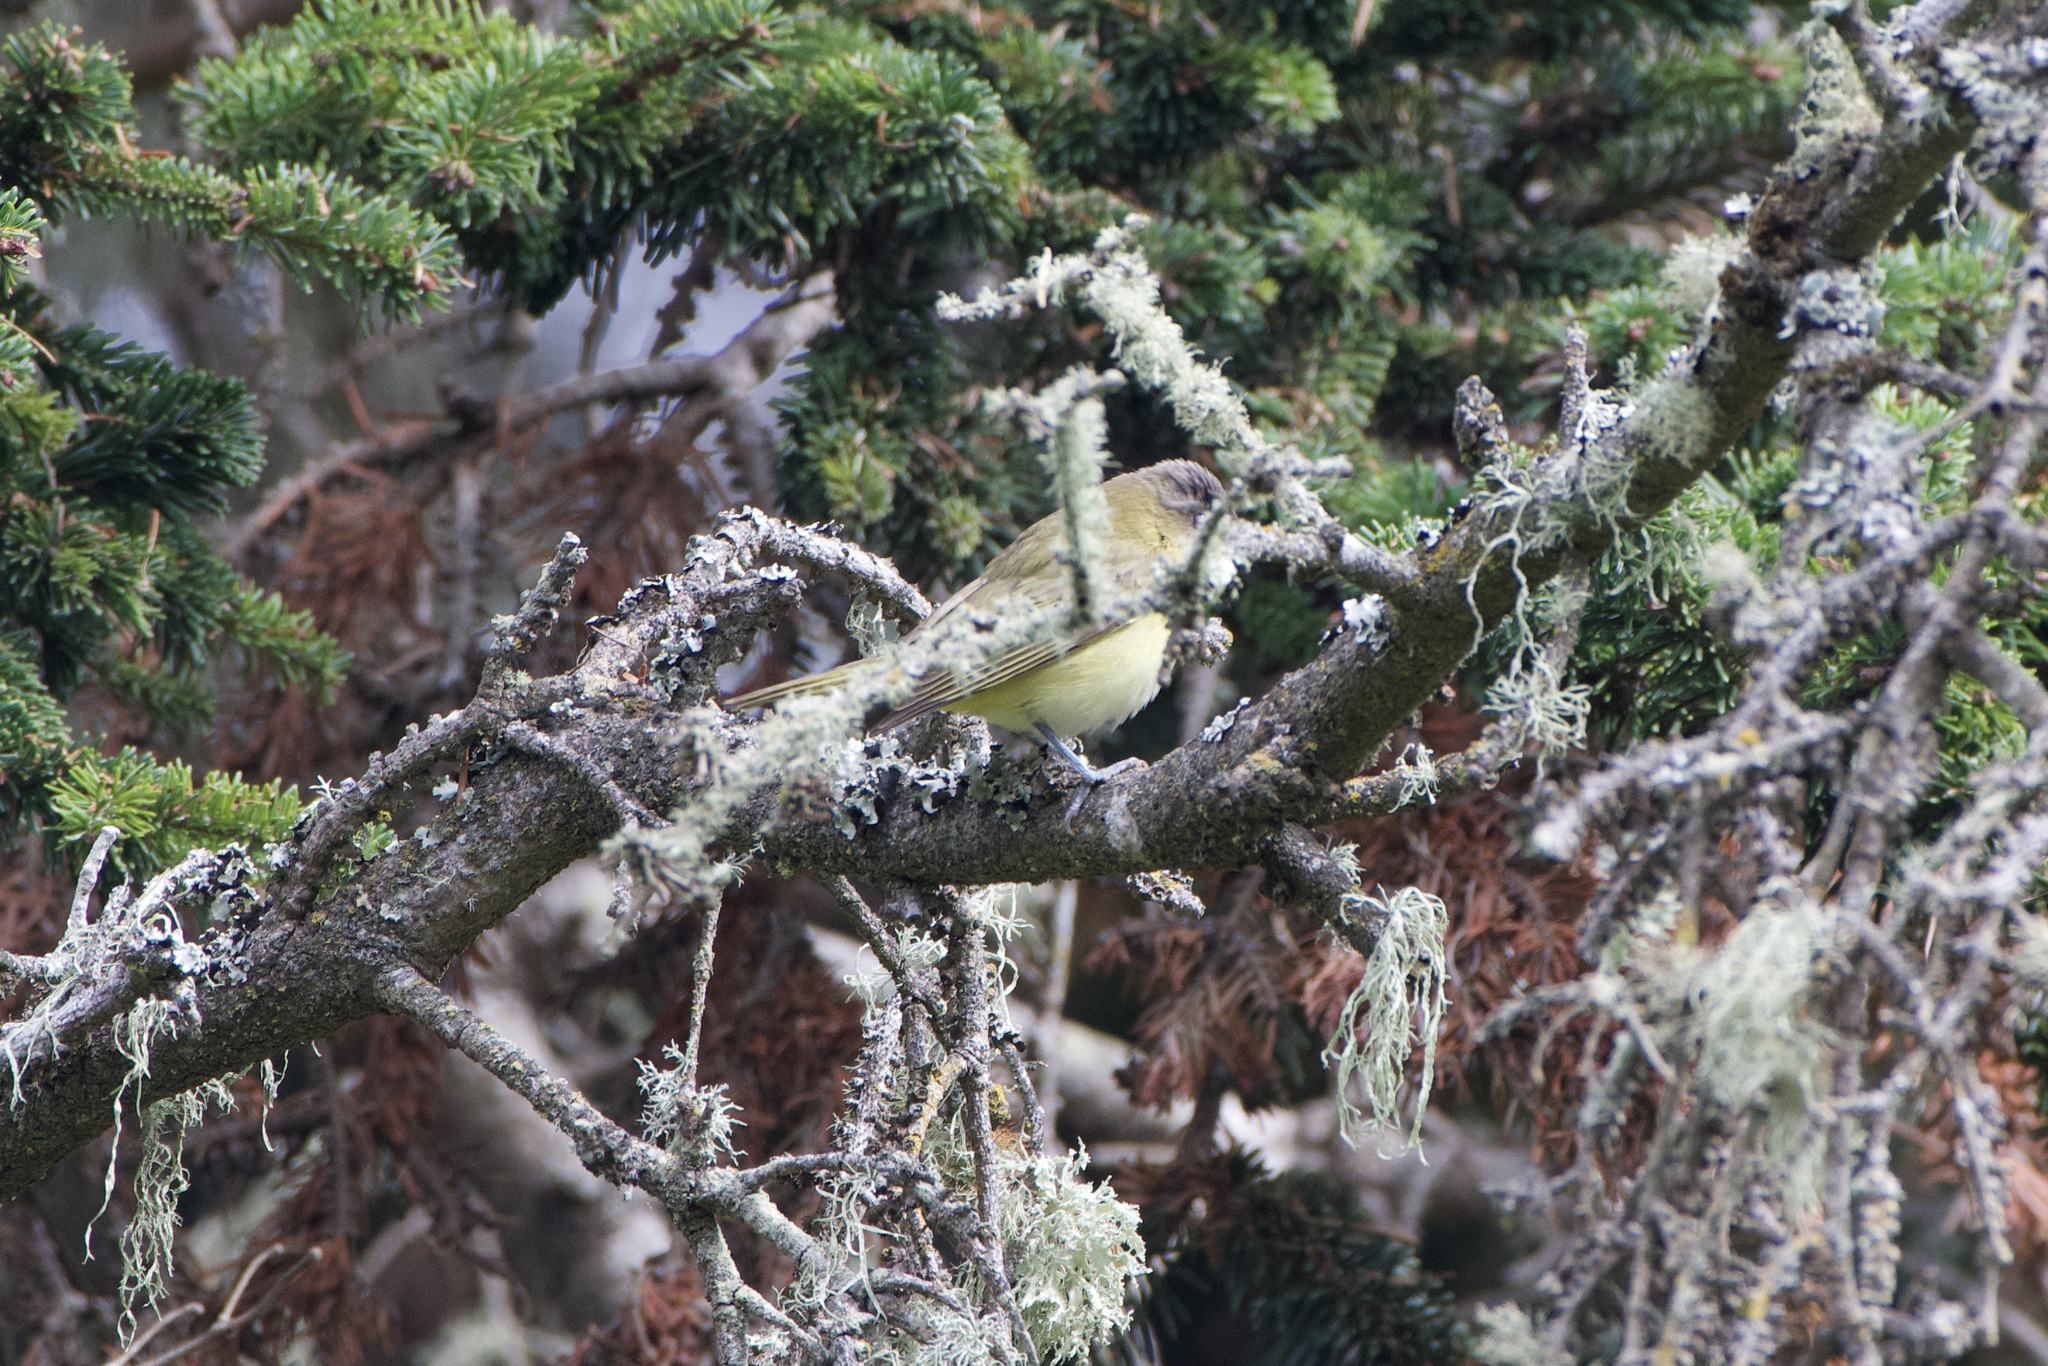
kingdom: Animalia
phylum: Chordata
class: Aves
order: Passeriformes
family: Vireonidae
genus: Vireo
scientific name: Vireo flavoviridis
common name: Yellow-green vireo
